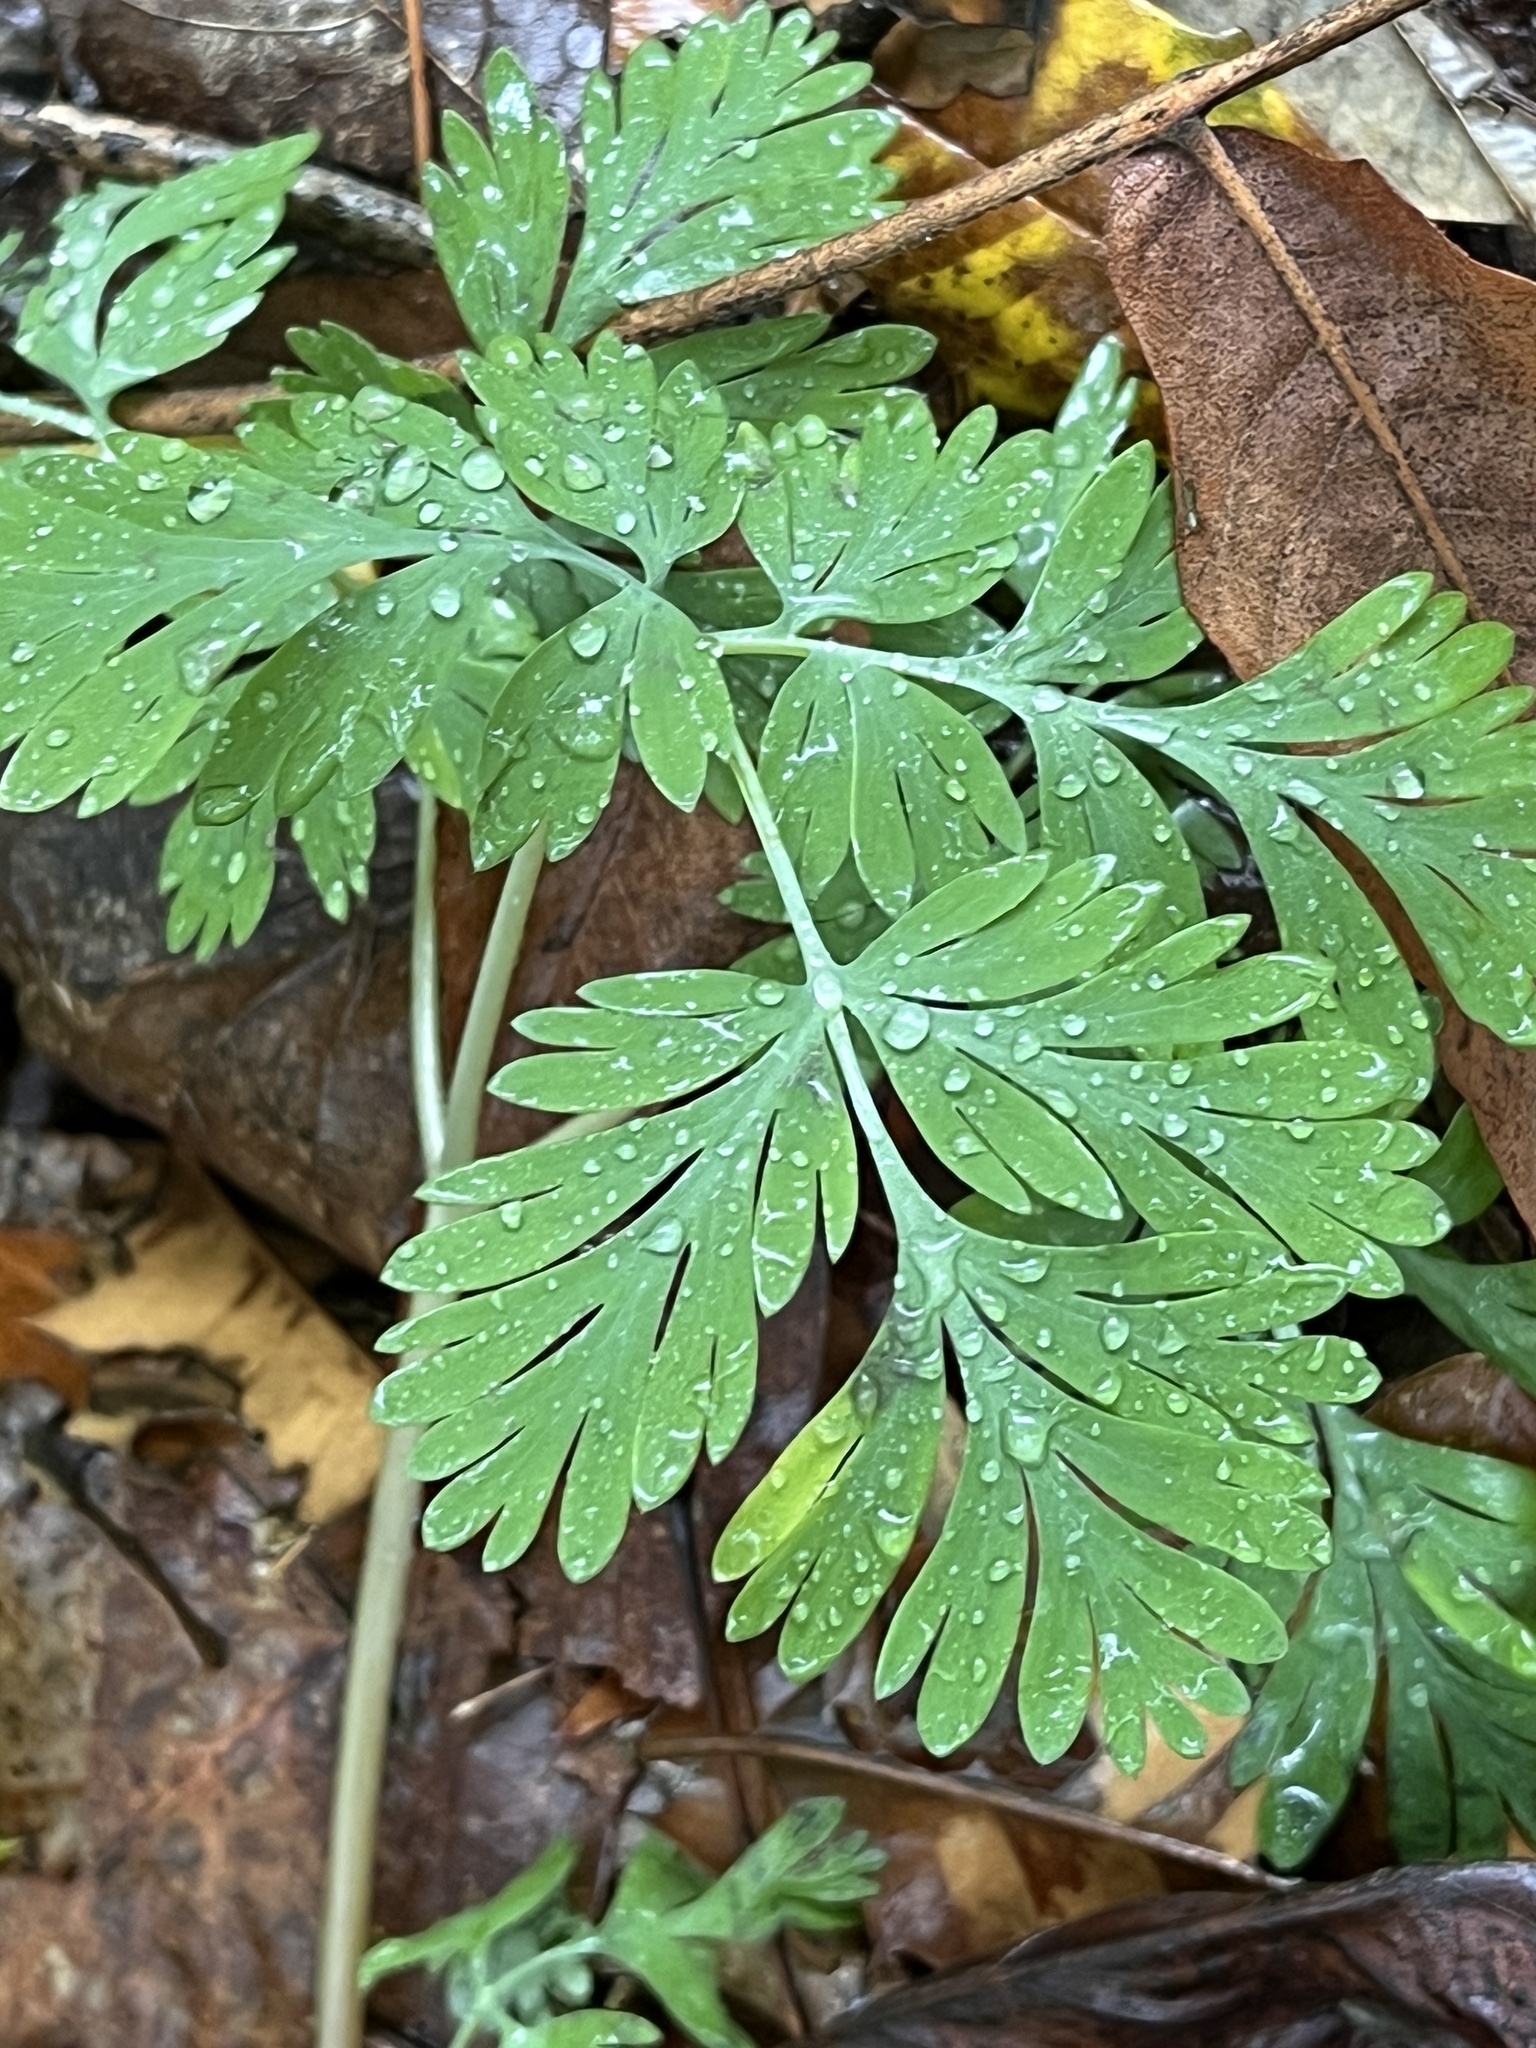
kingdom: Plantae
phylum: Tracheophyta
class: Magnoliopsida
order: Ranunculales
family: Papaveraceae
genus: Dicentra
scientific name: Dicentra cucullaria
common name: Dutchman's breeches
